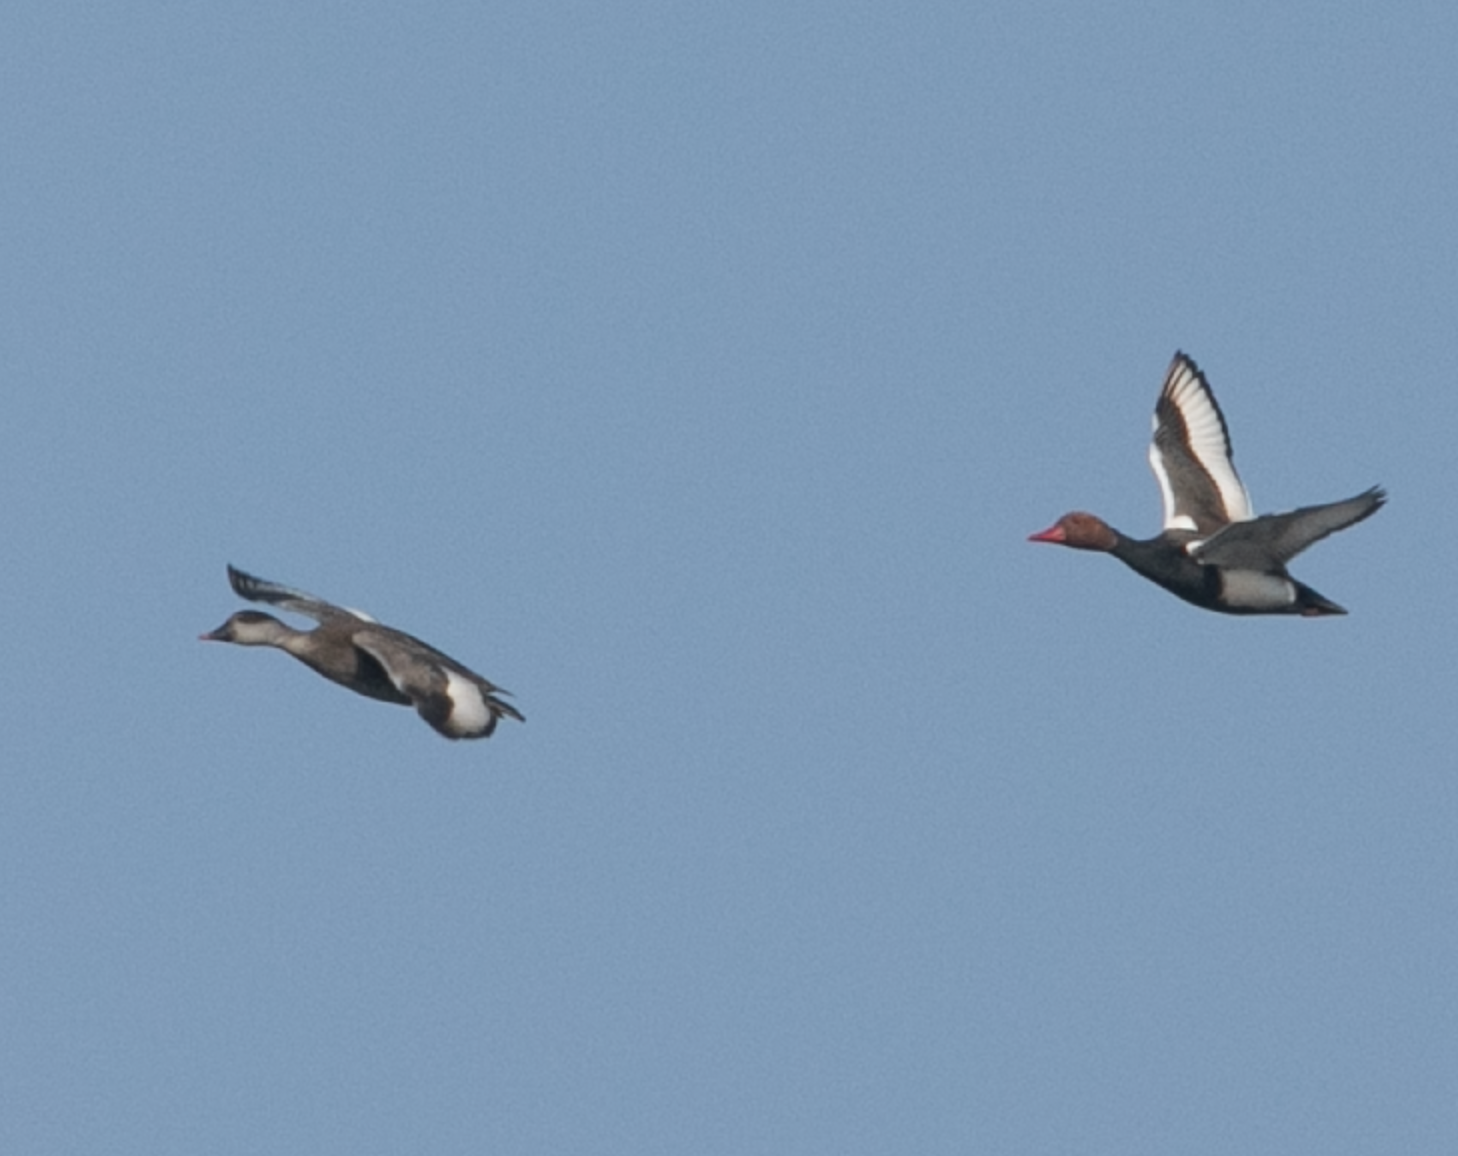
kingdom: Animalia
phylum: Chordata
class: Aves
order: Anseriformes
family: Anatidae
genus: Netta
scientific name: Netta rufina
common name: Red-crested pochard
